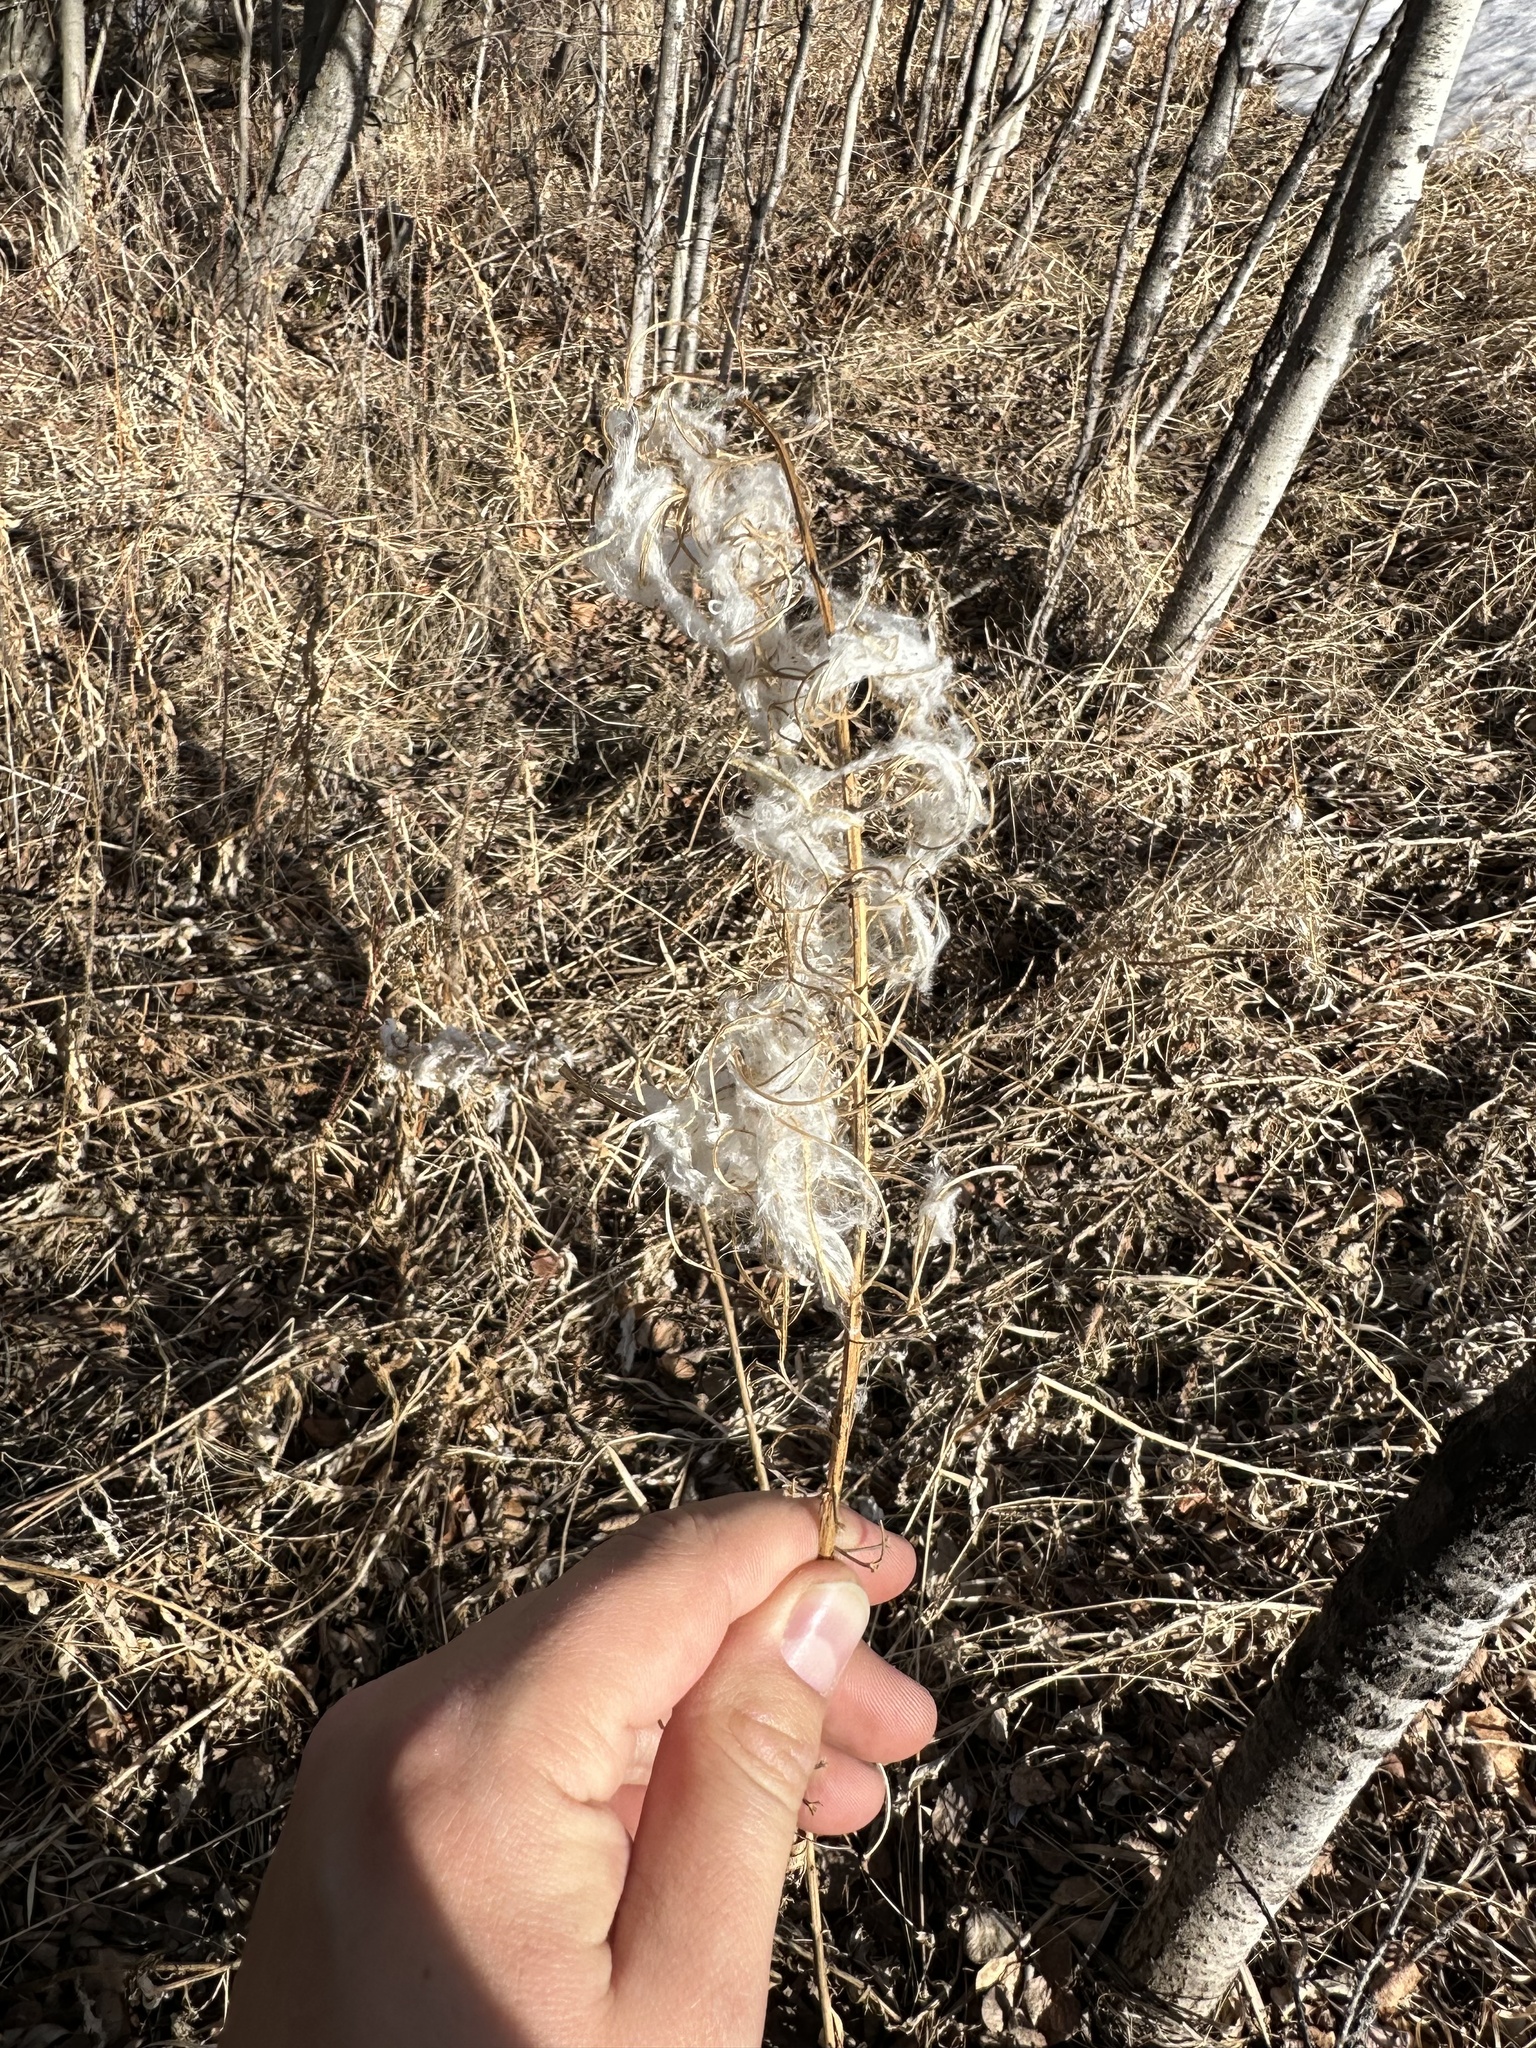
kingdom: Plantae
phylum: Tracheophyta
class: Magnoliopsida
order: Myrtales
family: Onagraceae
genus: Chamaenerion
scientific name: Chamaenerion angustifolium
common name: Fireweed
